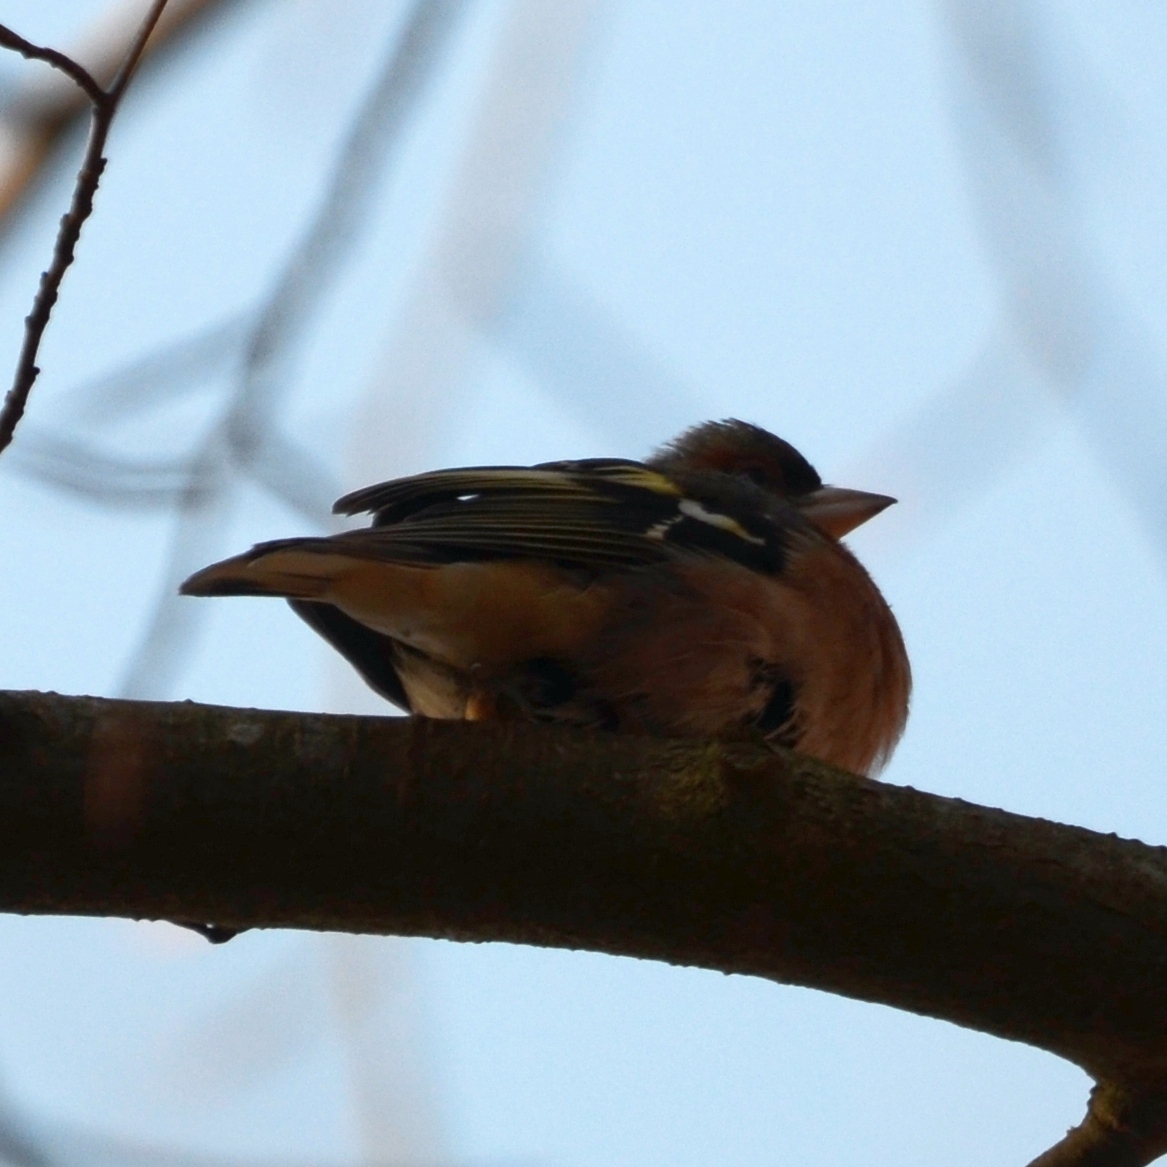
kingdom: Animalia
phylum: Chordata
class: Aves
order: Passeriformes
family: Fringillidae
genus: Fringilla
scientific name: Fringilla coelebs
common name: Common chaffinch
